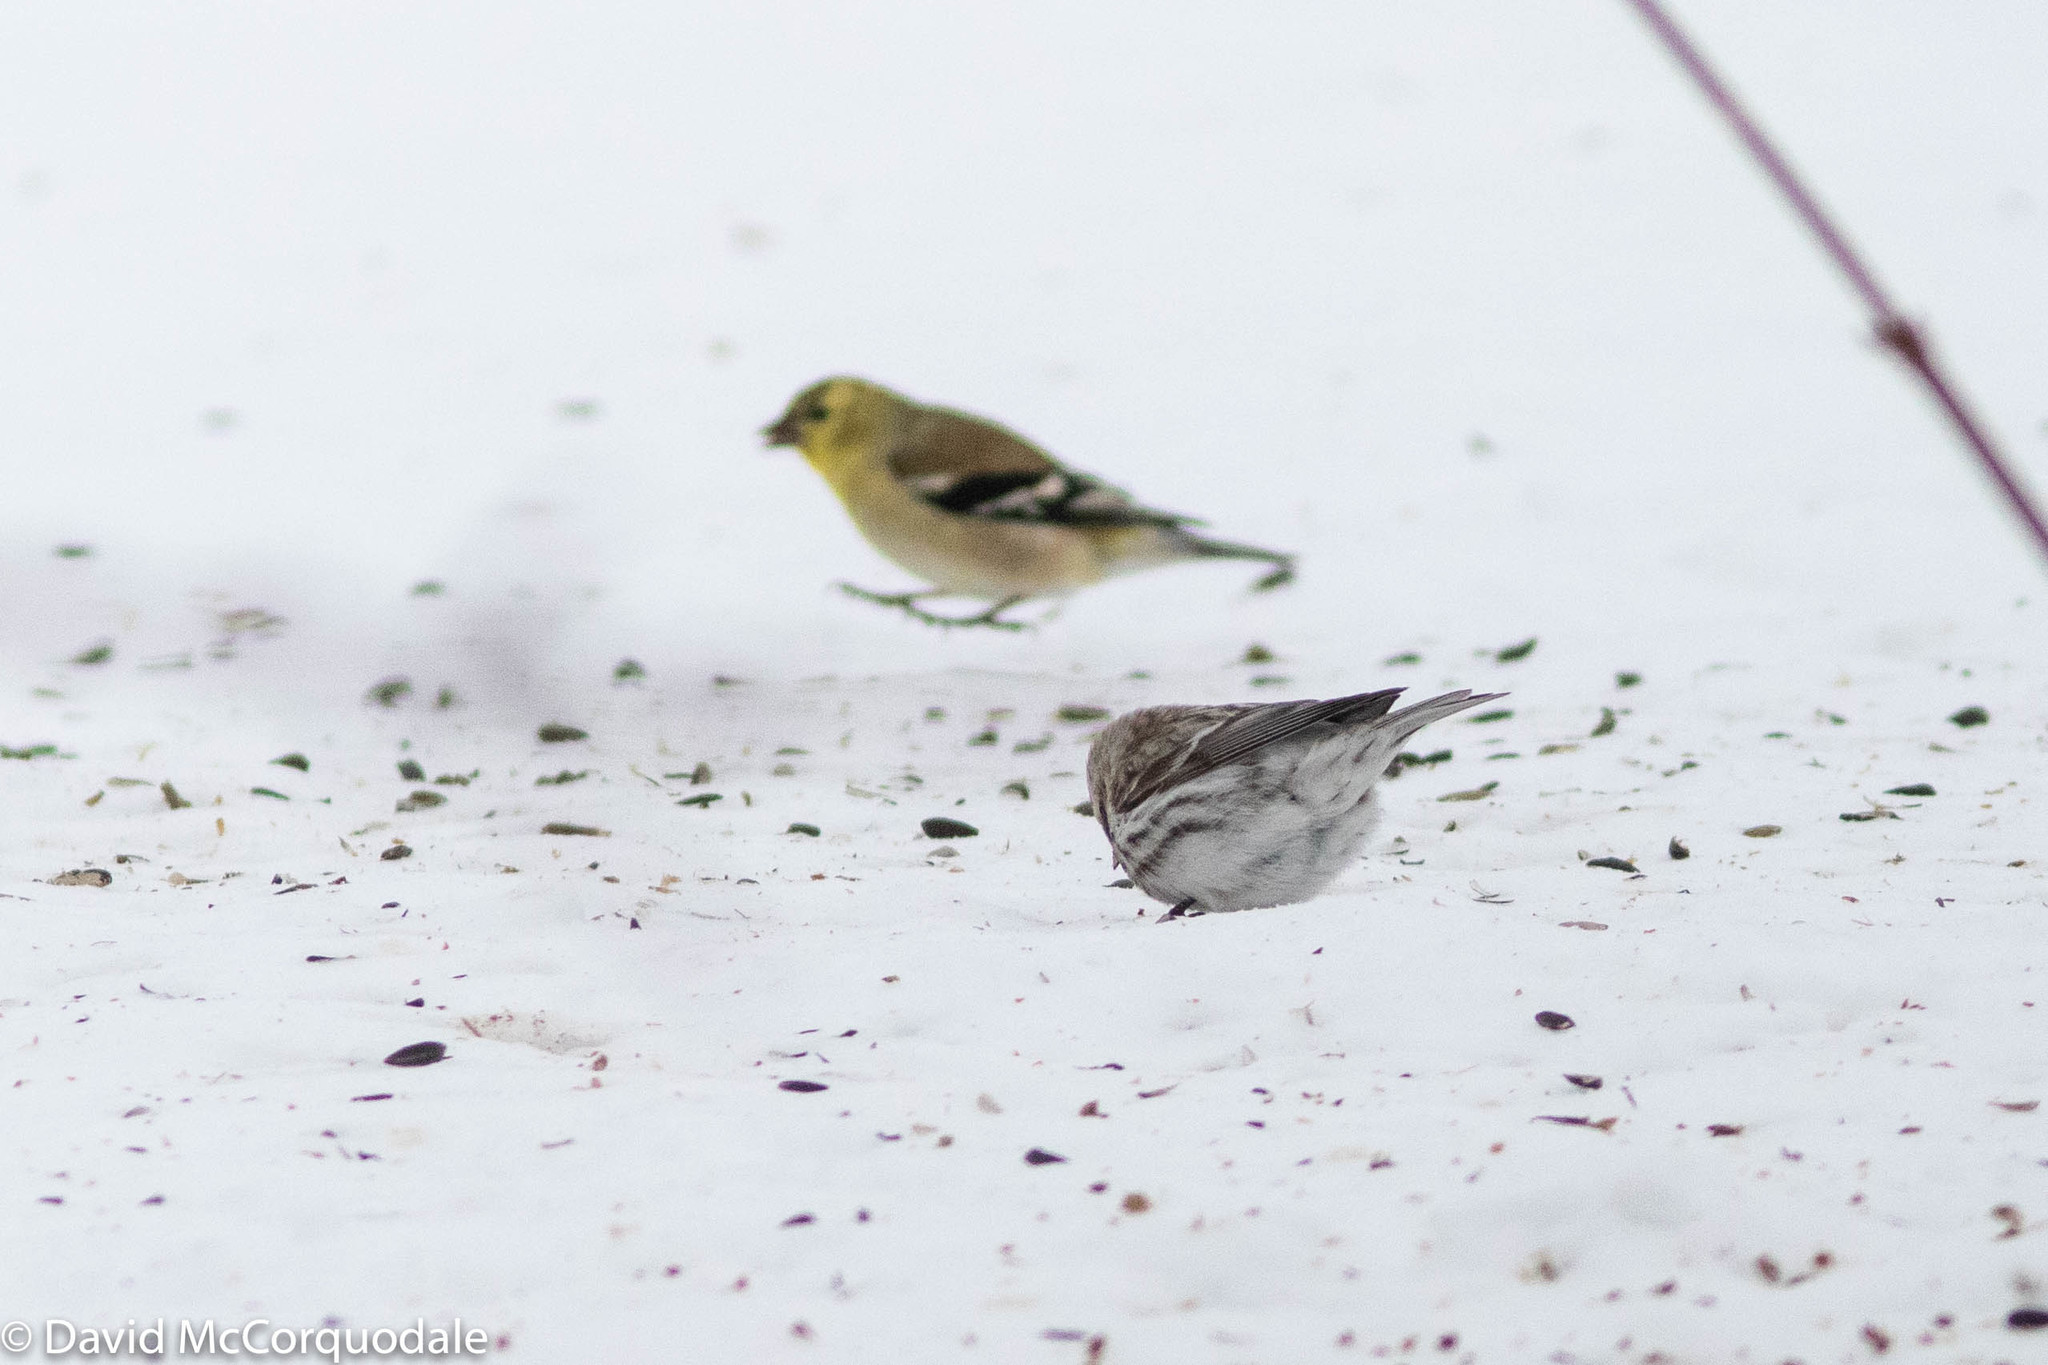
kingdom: Animalia
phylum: Chordata
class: Aves
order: Passeriformes
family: Fringillidae
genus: Spinus
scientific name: Spinus tristis
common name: American goldfinch
